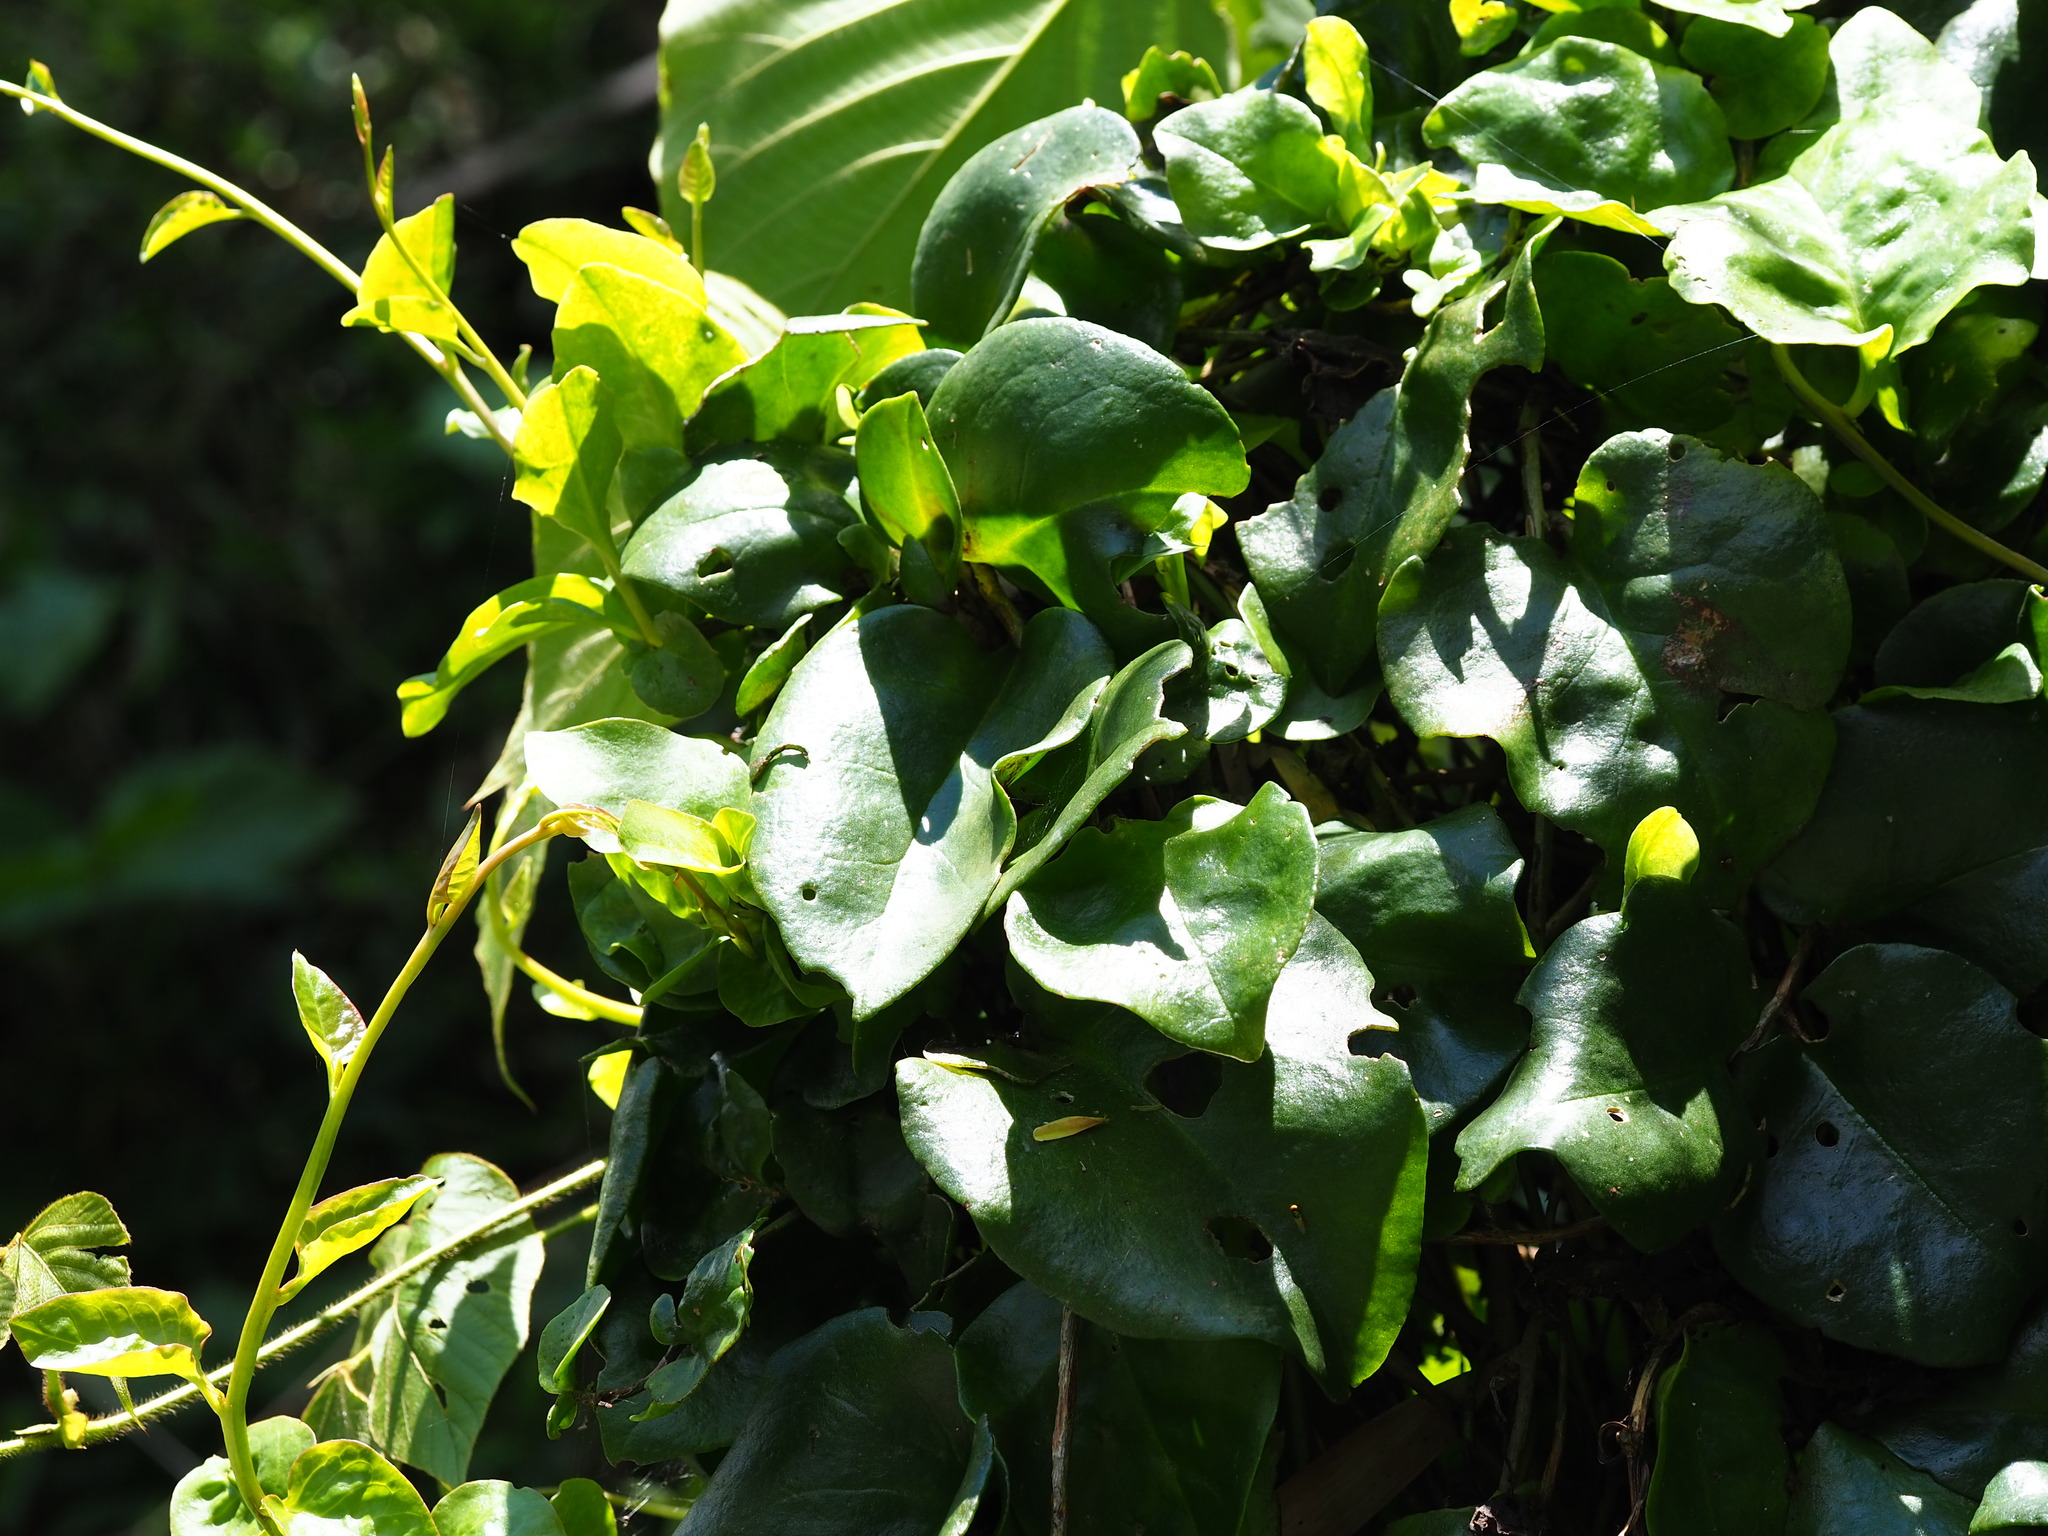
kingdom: Plantae
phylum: Tracheophyta
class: Magnoliopsida
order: Caryophyllales
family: Basellaceae
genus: Anredera
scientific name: Anredera cordifolia
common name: Heartleaf madeiravine
